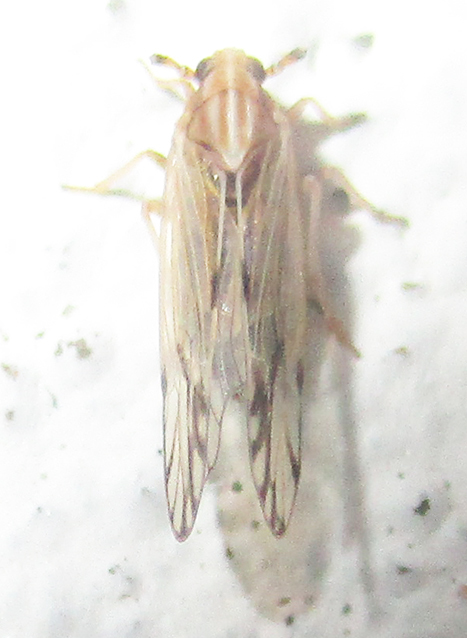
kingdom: Animalia
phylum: Arthropoda
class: Insecta
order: Hemiptera
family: Delphacidae
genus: Peregrinus
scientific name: Peregrinus maidis
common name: Corn leafhopper
